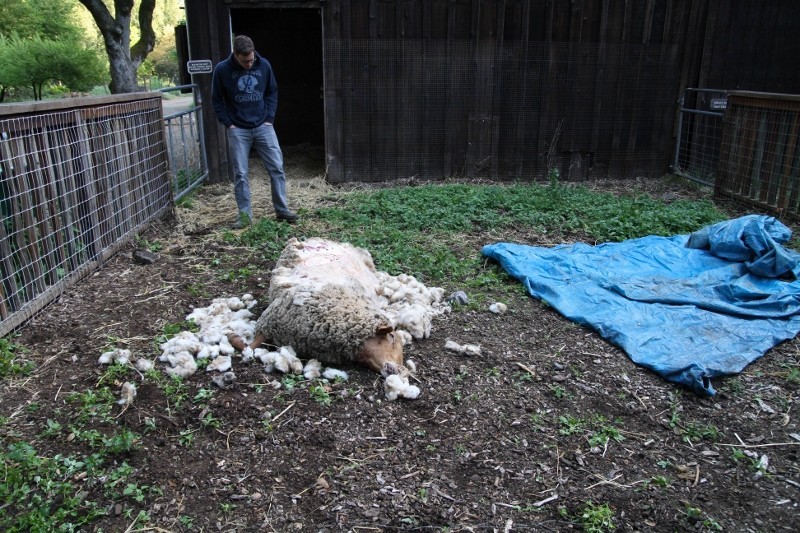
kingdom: Animalia
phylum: Chordata
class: Mammalia
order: Carnivora
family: Felidae
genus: Puma
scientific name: Puma concolor
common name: Puma
